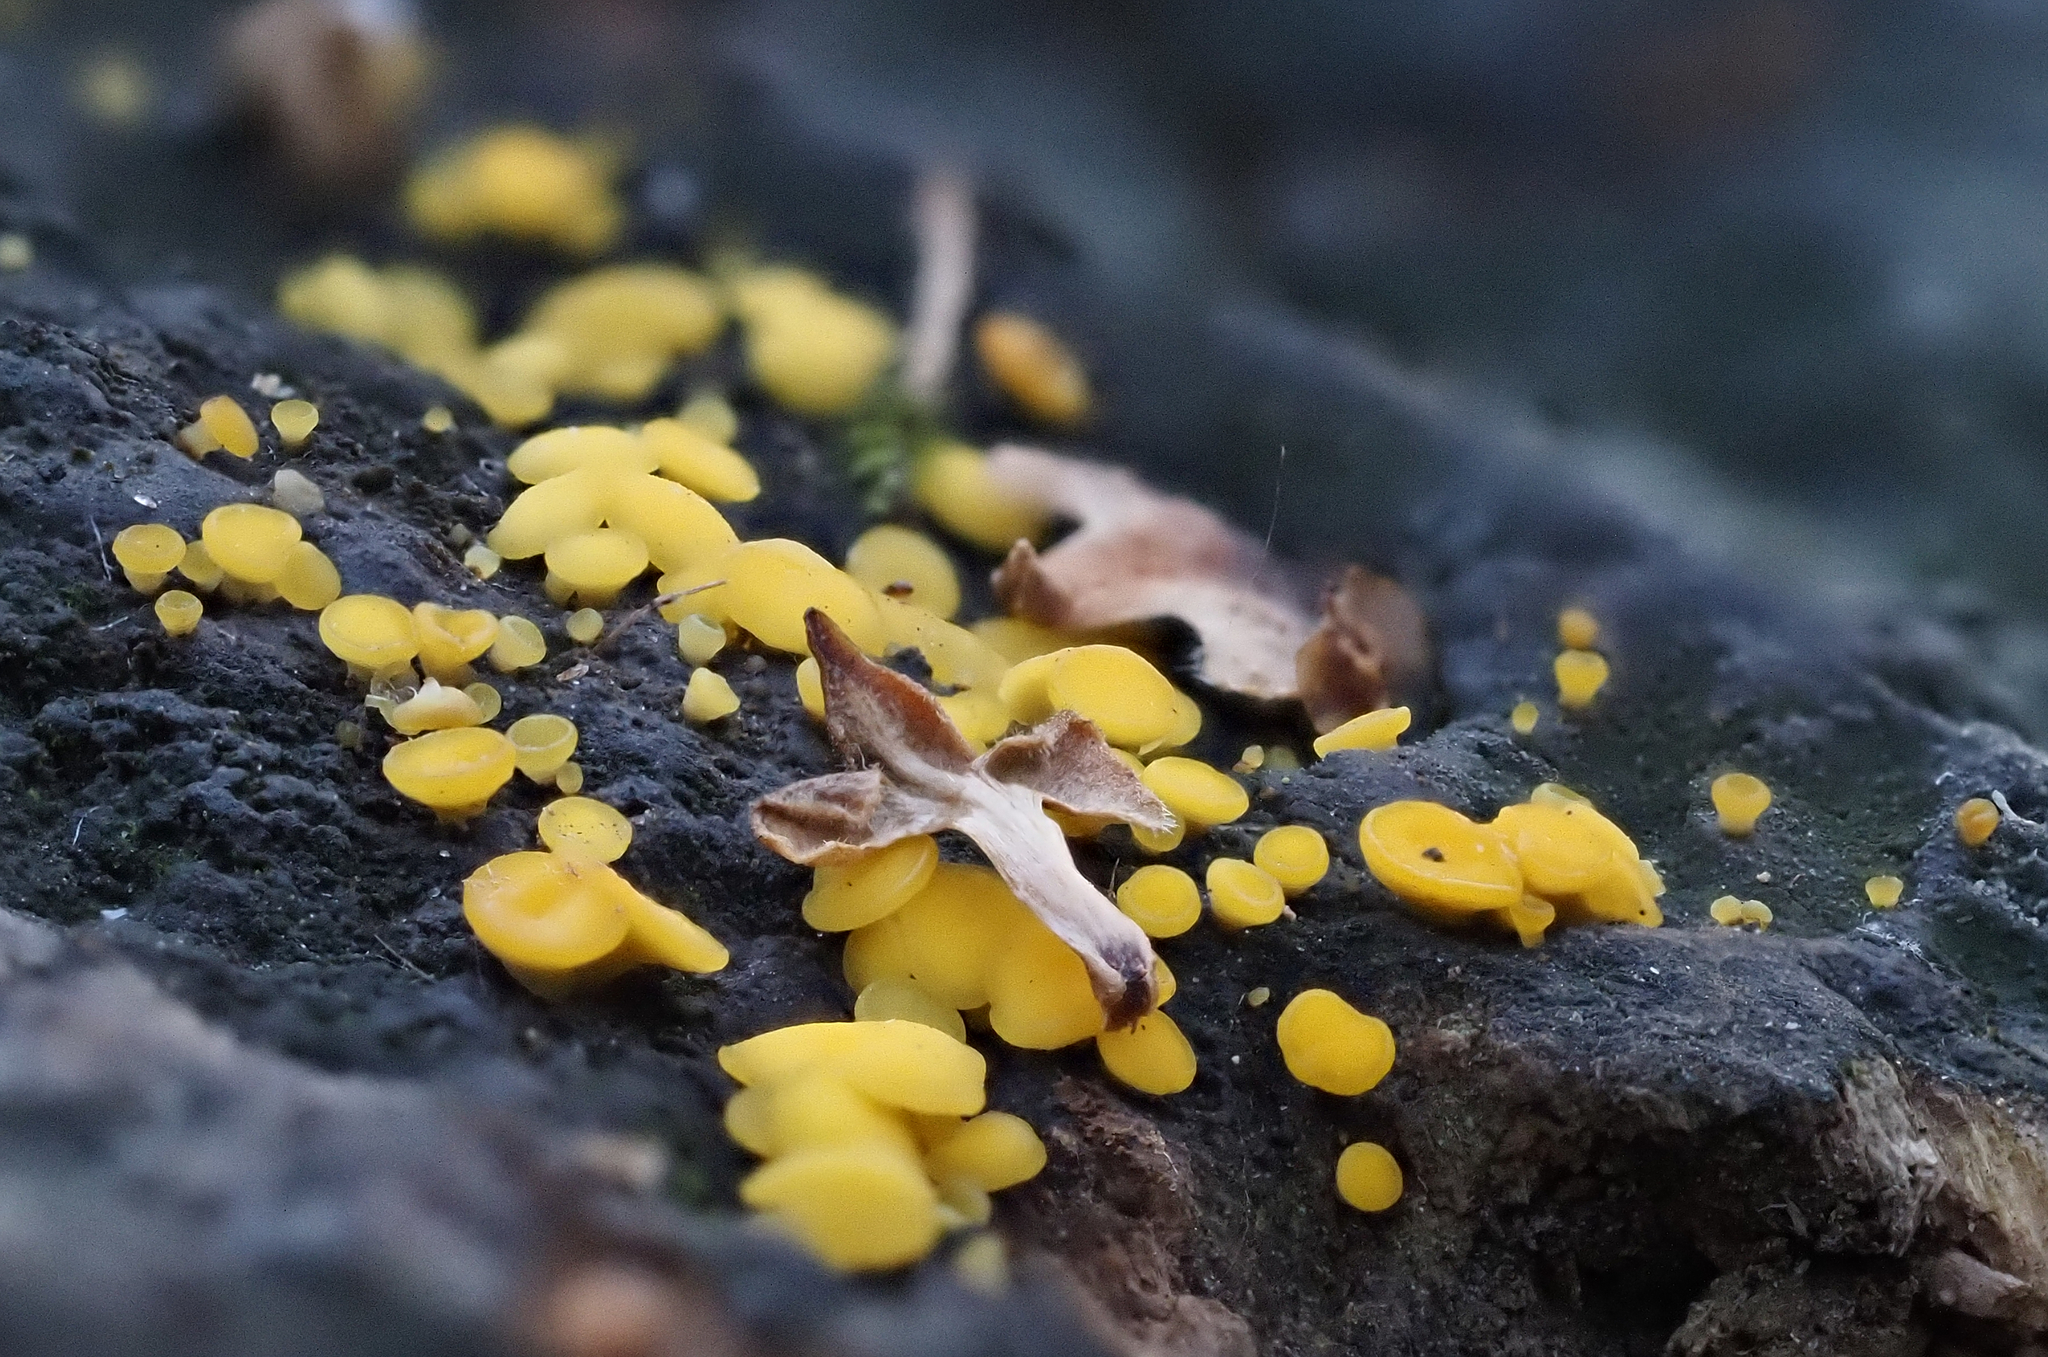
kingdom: Fungi
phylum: Ascomycota
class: Leotiomycetes
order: Helotiales
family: Pezizellaceae
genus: Calycina
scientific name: Calycina citrina
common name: Yellow fairy cups
